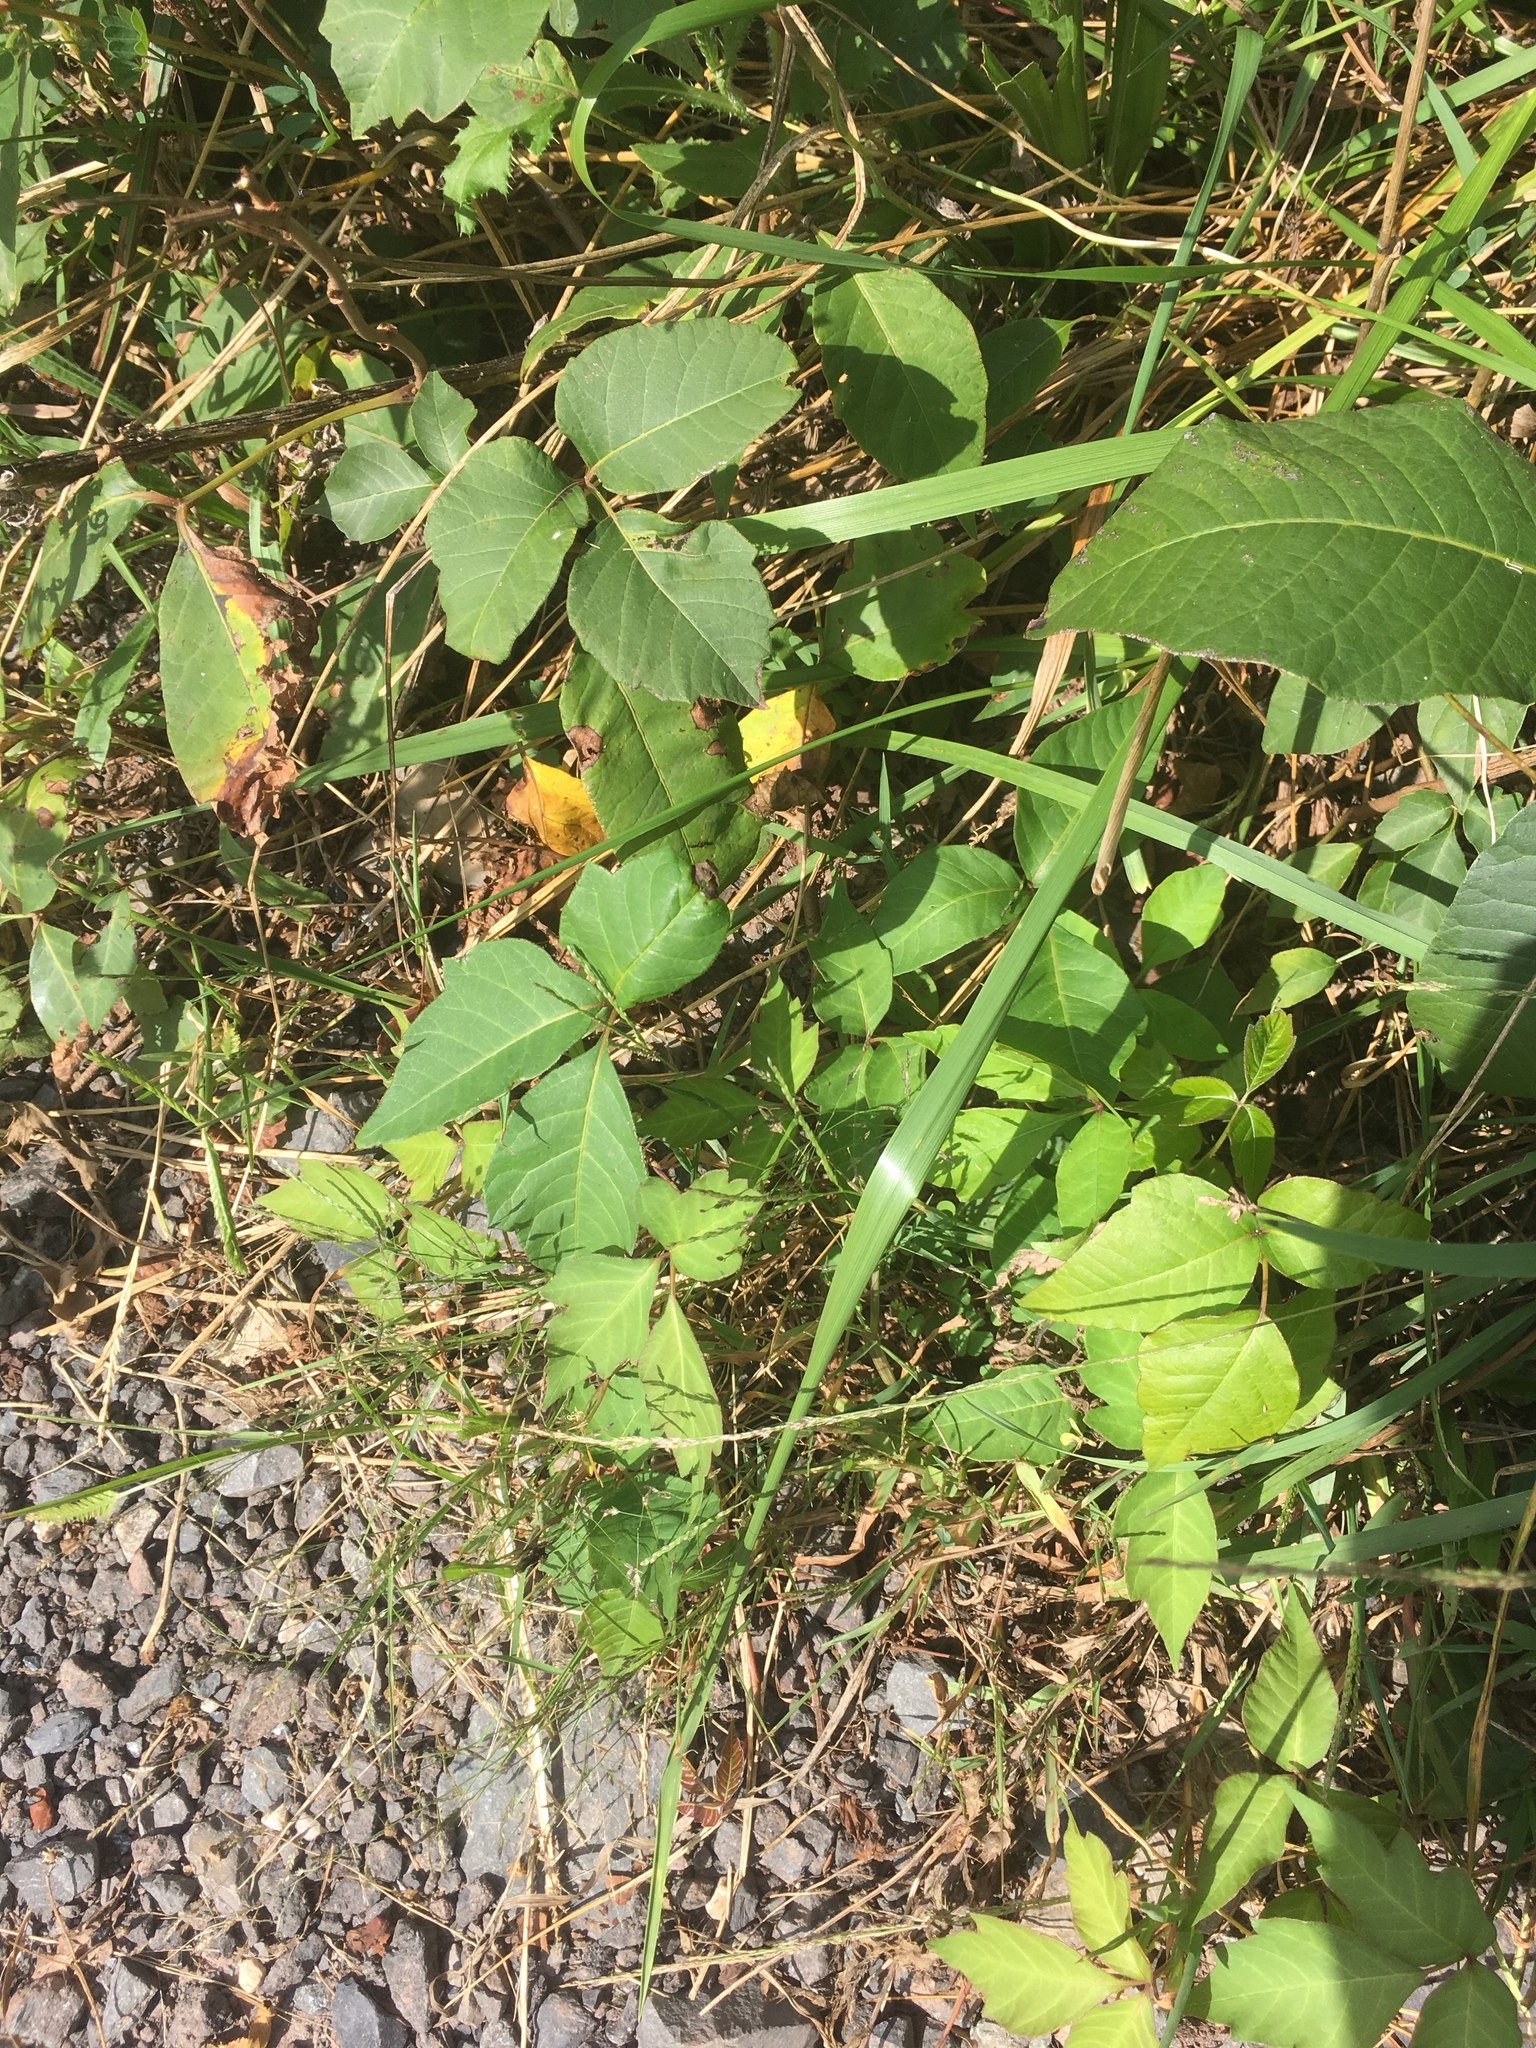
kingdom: Plantae
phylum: Tracheophyta
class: Magnoliopsida
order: Sapindales
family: Anacardiaceae
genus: Toxicodendron
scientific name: Toxicodendron radicans
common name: Poison ivy
